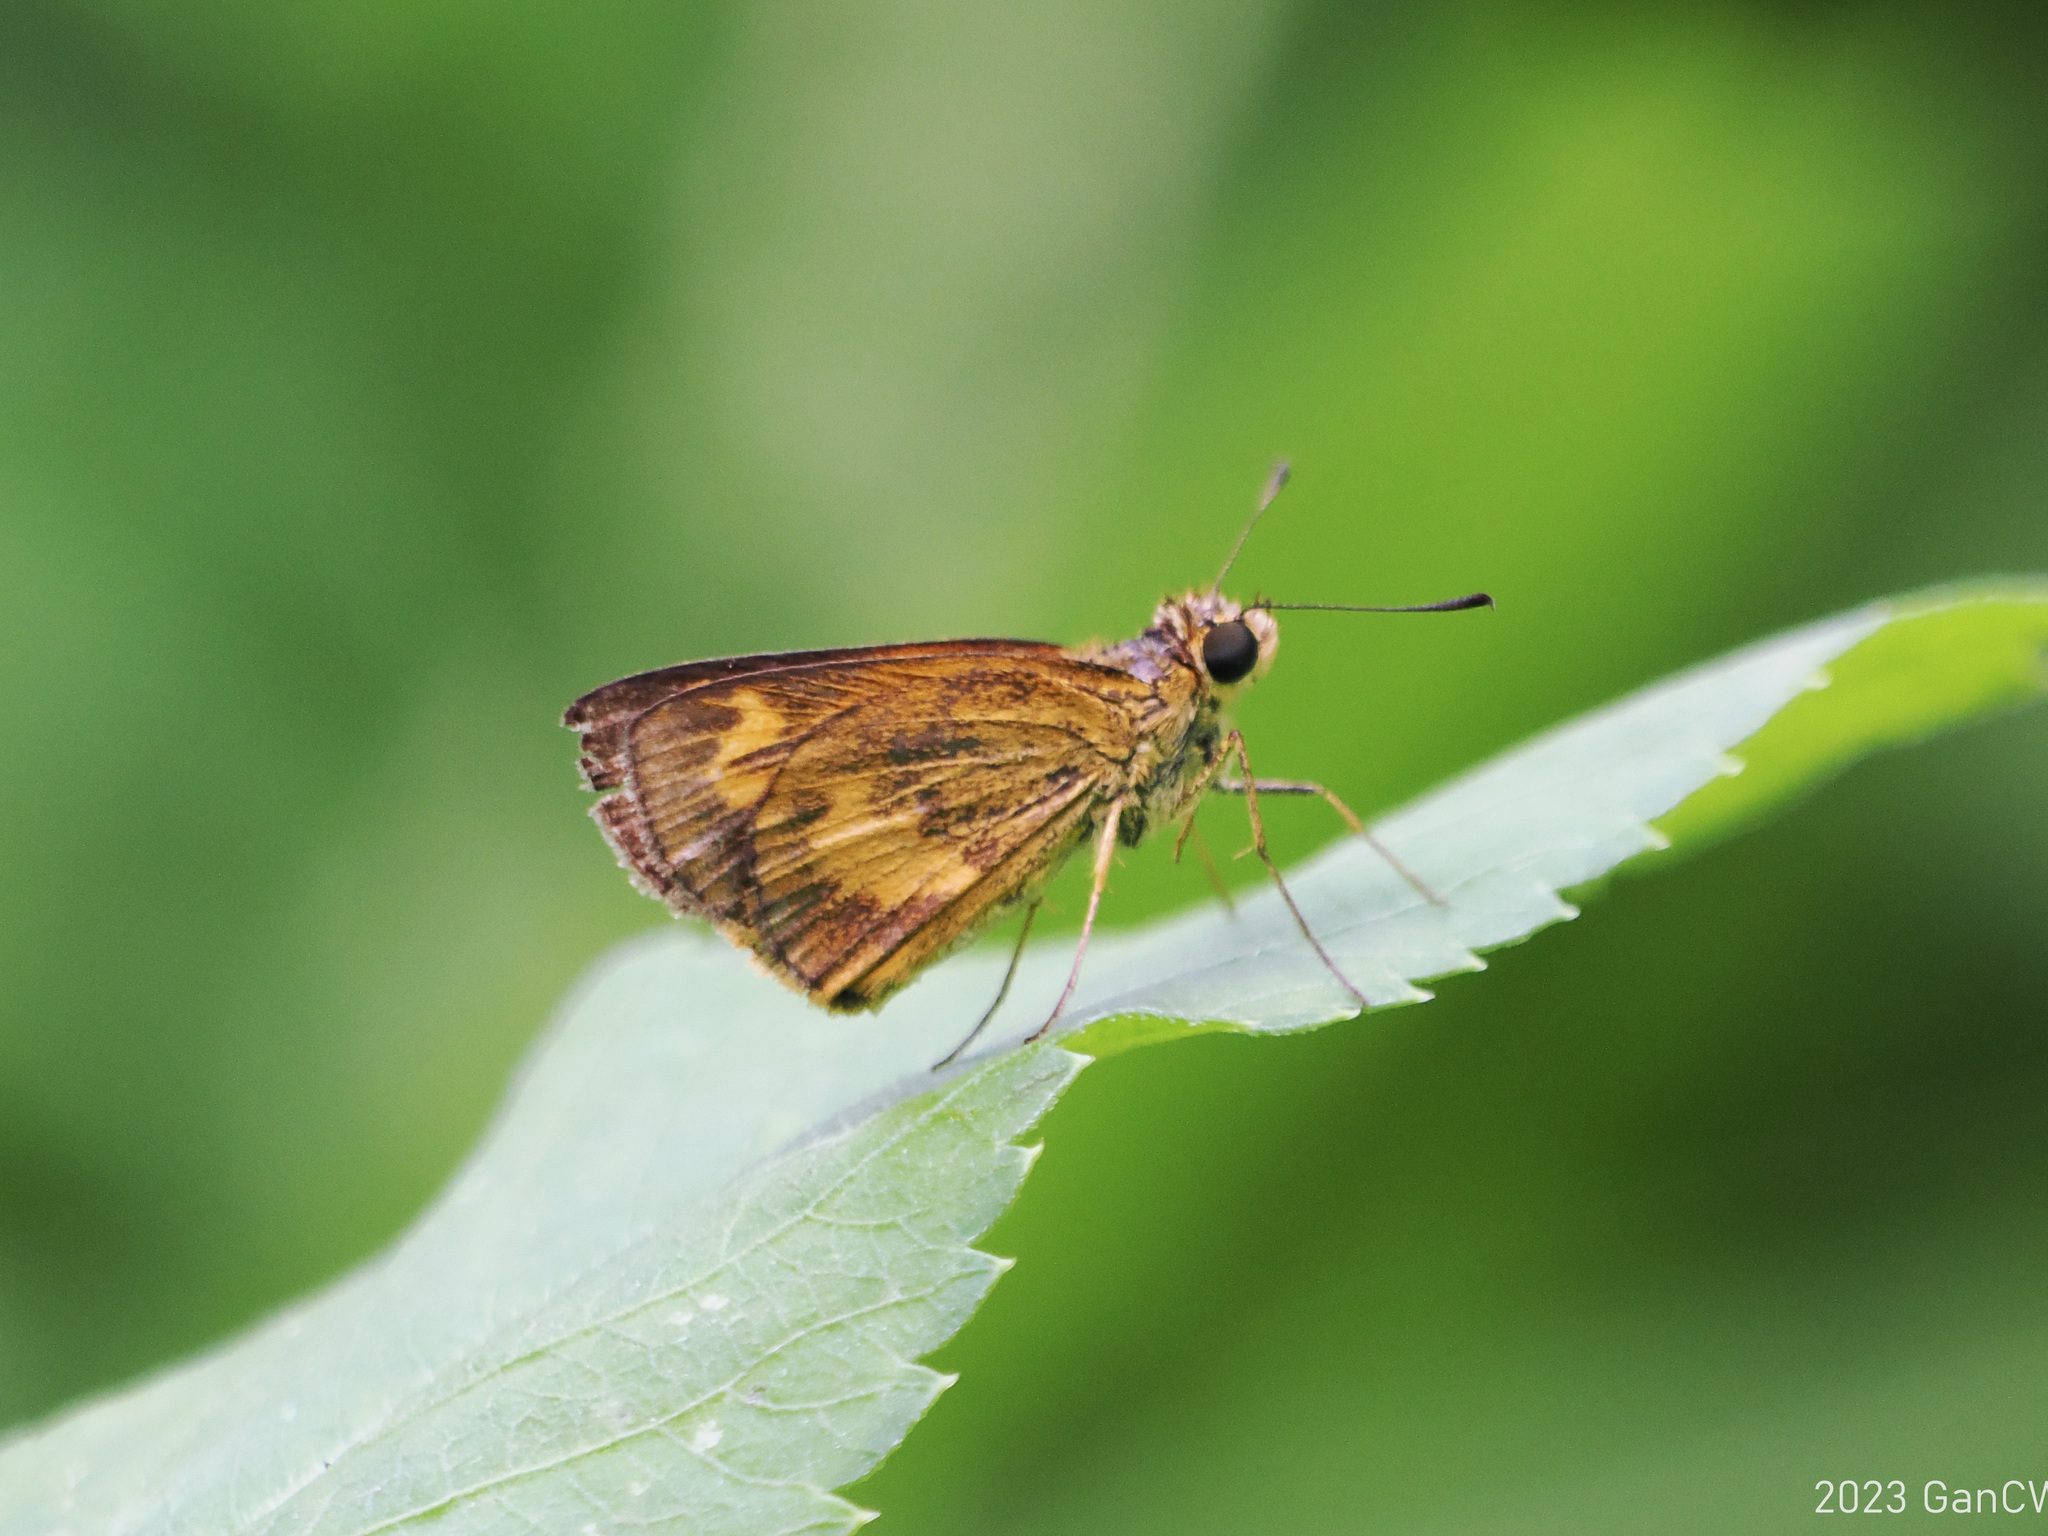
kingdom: Animalia
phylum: Arthropoda
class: Insecta
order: Lepidoptera
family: Hesperiidae
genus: Oriens
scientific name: Oriens gola
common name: Common dartlet
